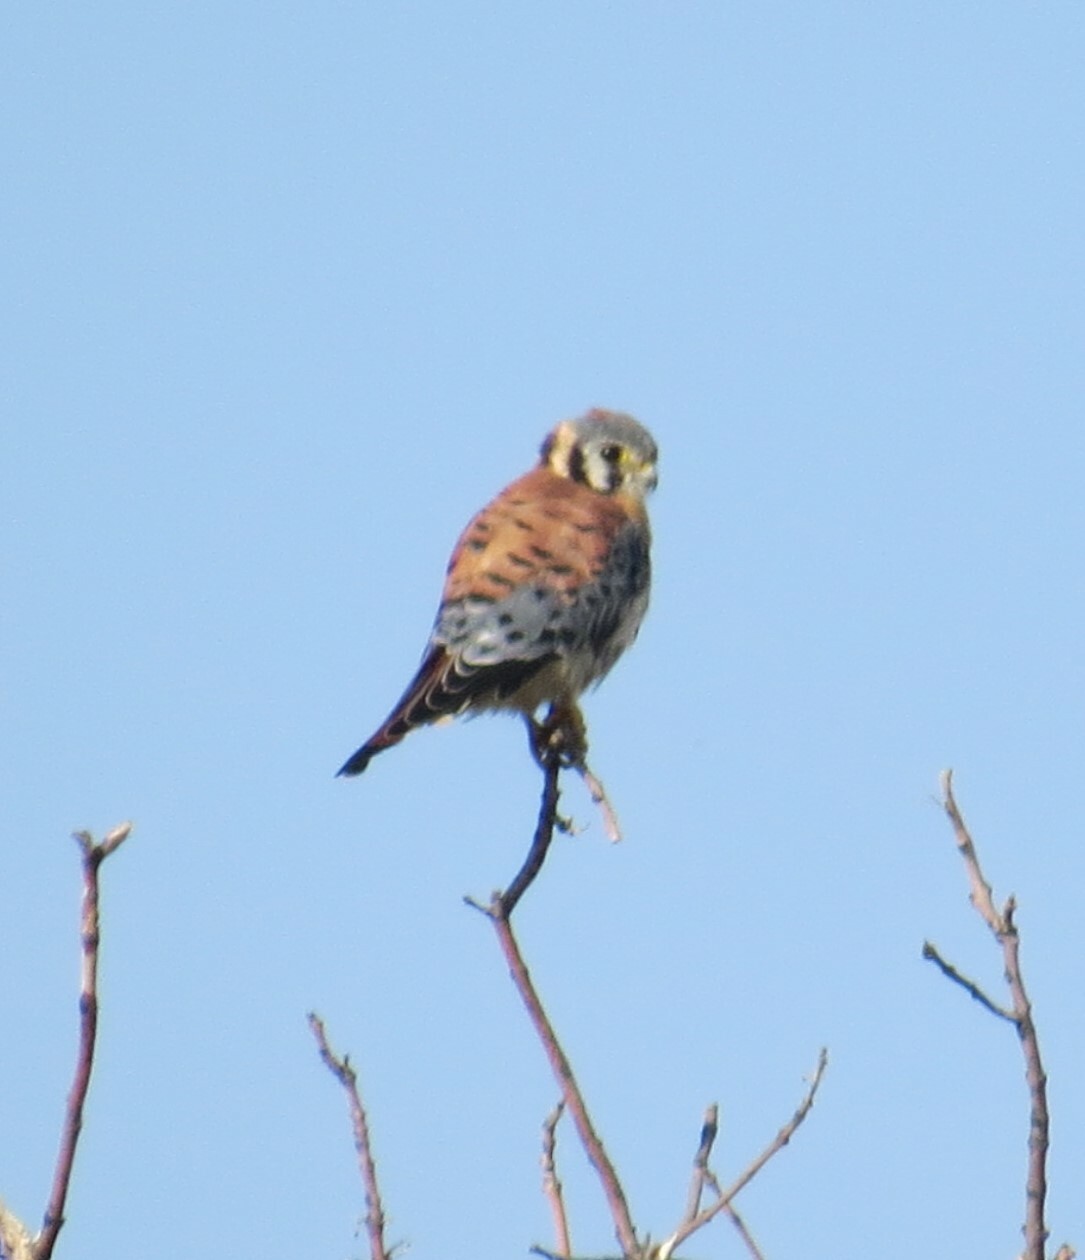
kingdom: Animalia
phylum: Chordata
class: Aves
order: Falconiformes
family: Falconidae
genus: Falco
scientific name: Falco sparverius
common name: American kestrel
